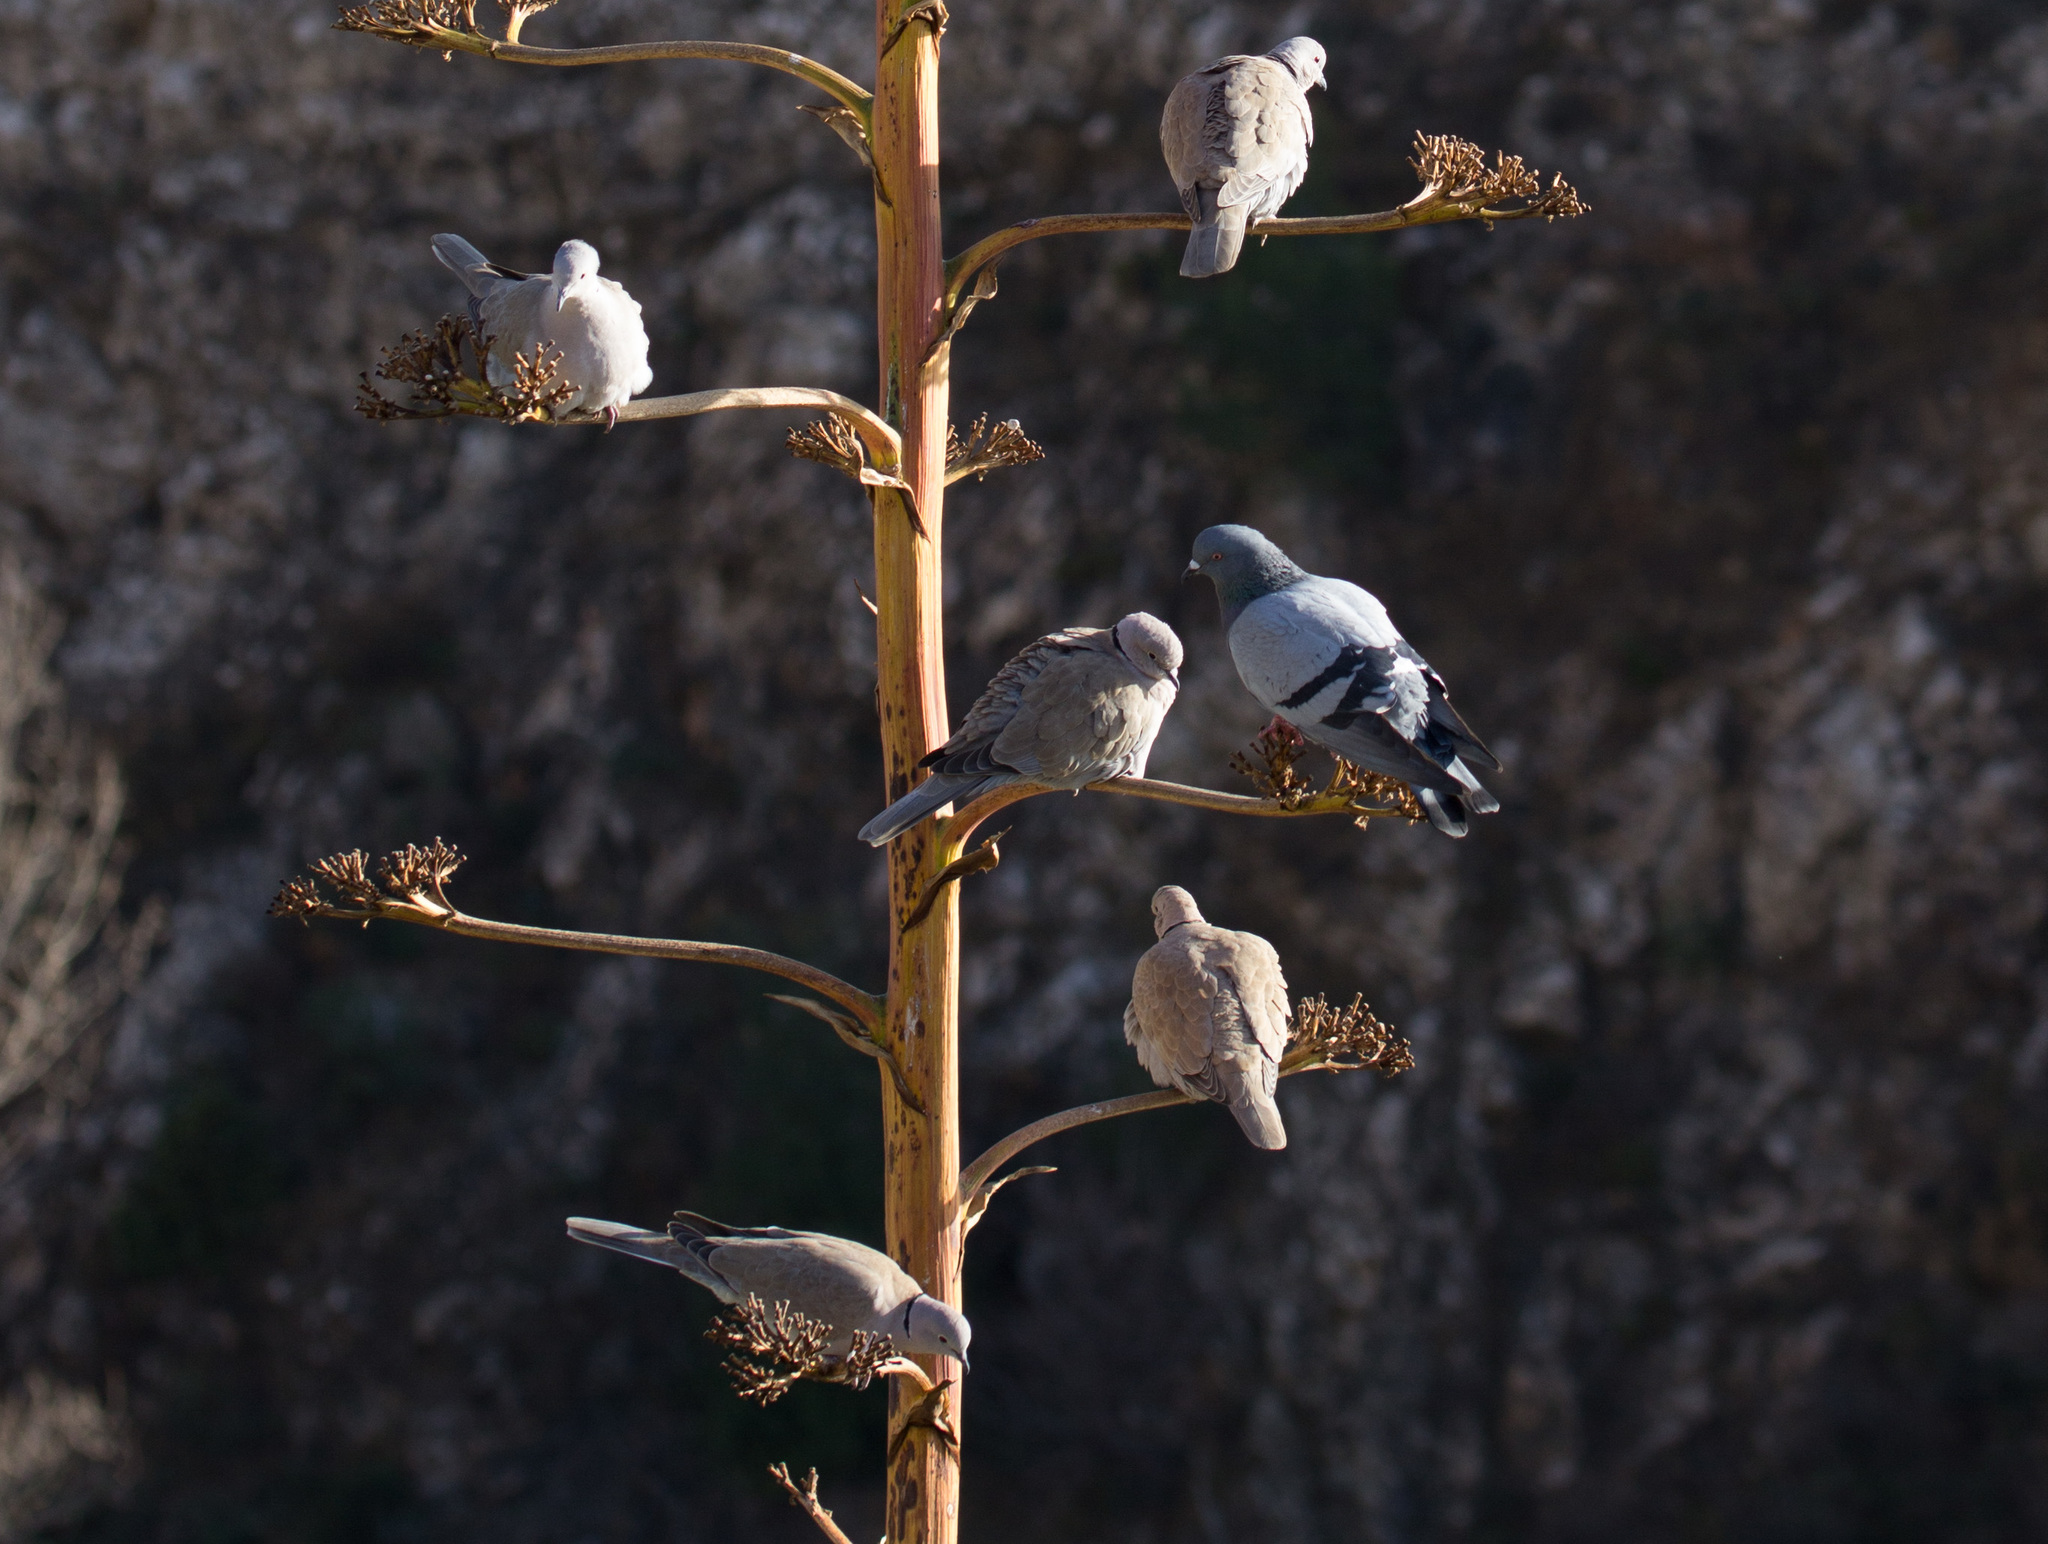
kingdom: Animalia
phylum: Chordata
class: Aves
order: Columbiformes
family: Columbidae
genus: Streptopelia
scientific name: Streptopelia decaocto
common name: Eurasian collared dove
